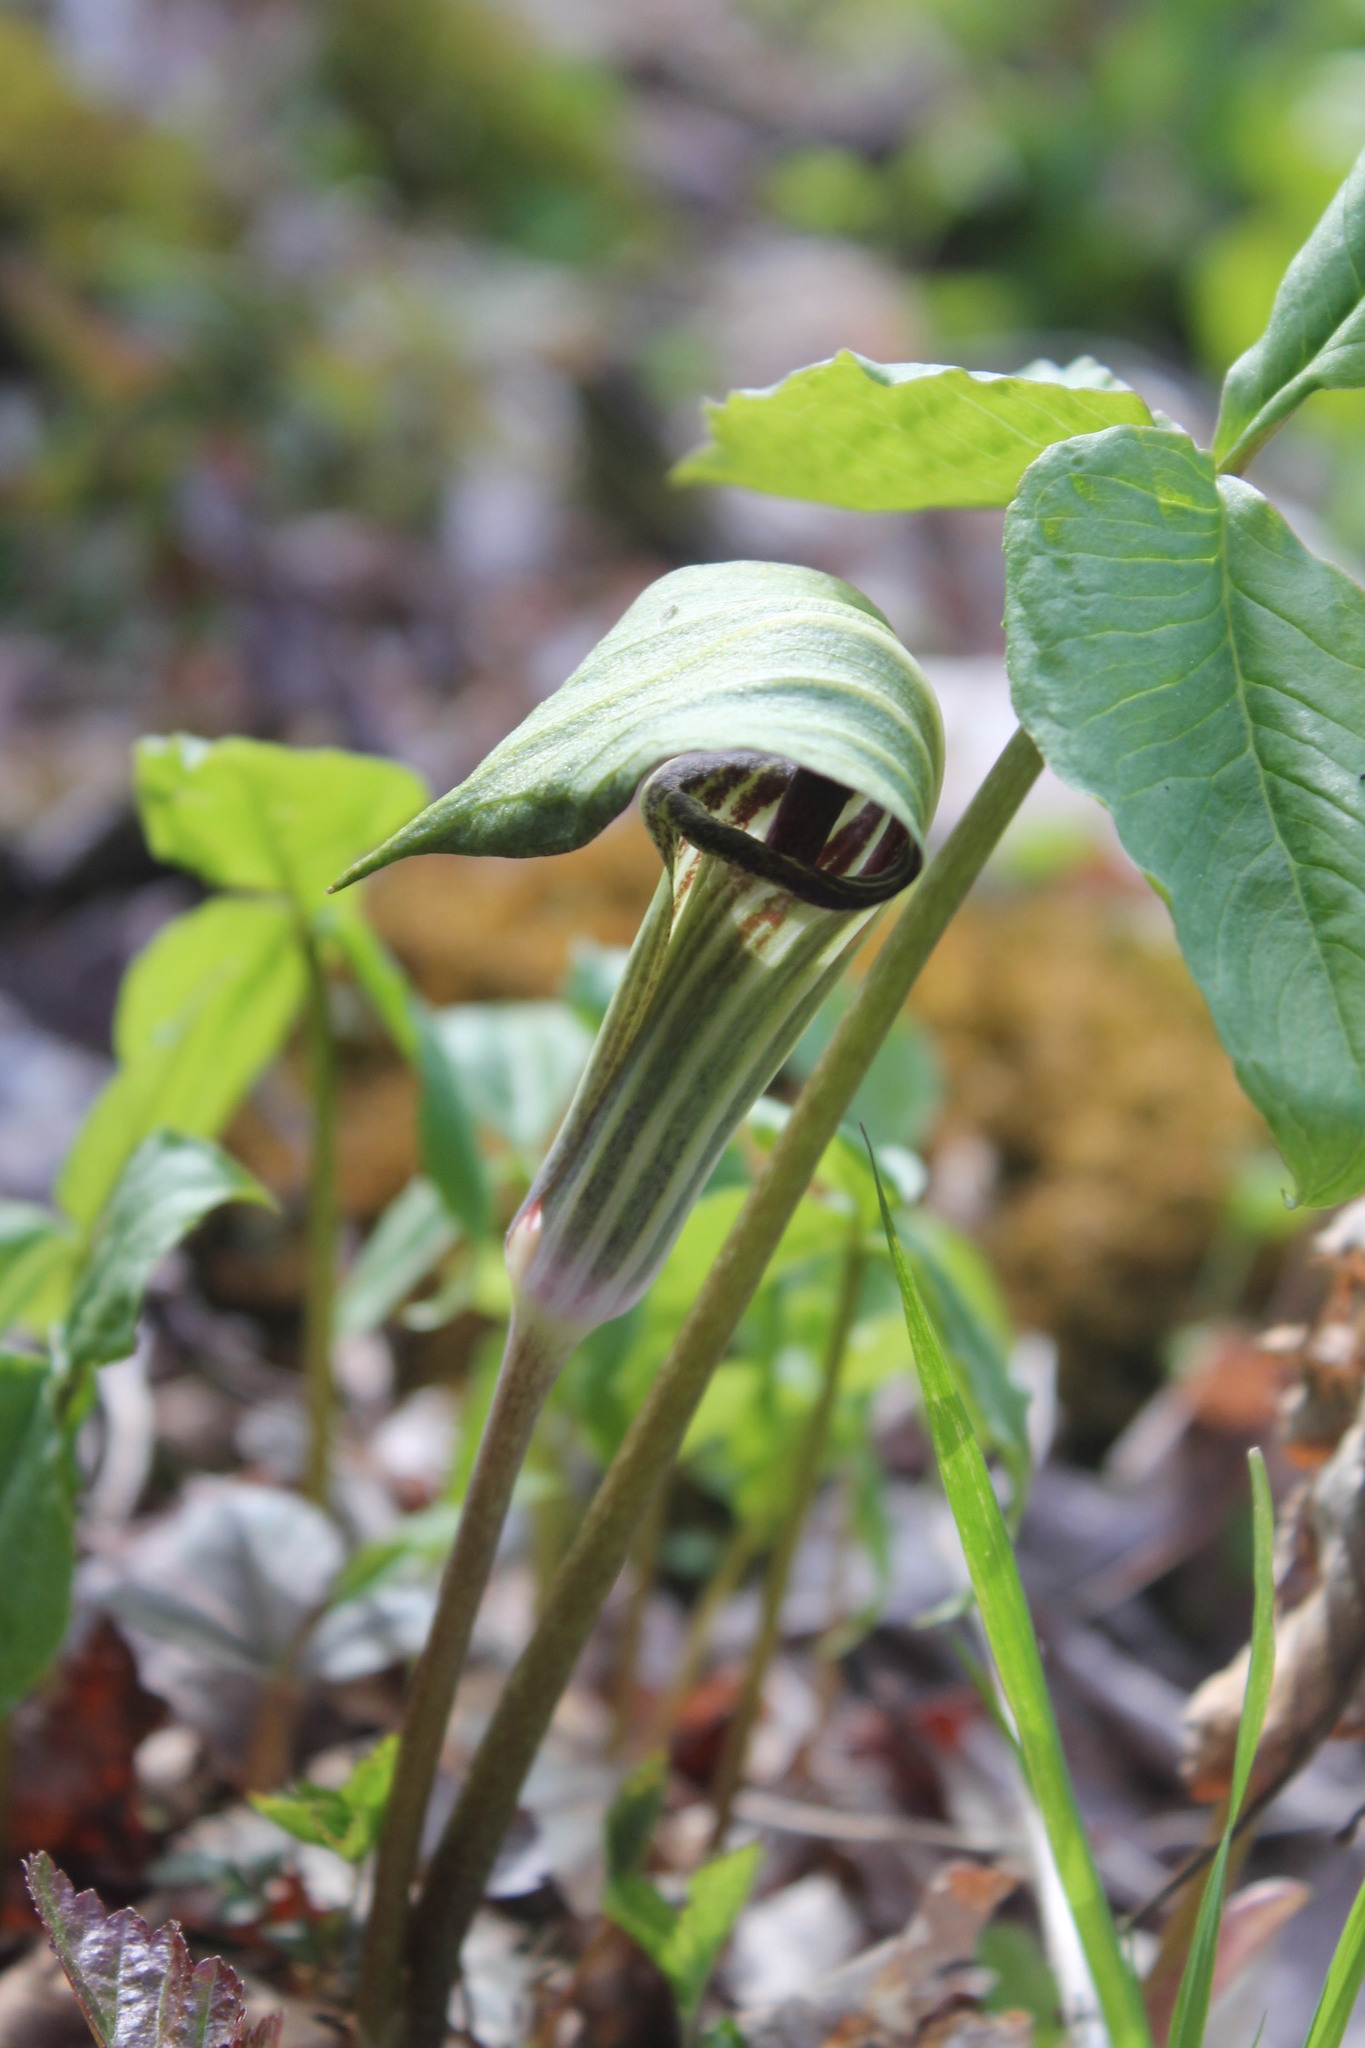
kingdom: Plantae
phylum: Tracheophyta
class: Liliopsida
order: Alismatales
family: Araceae
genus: Arisaema
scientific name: Arisaema triphyllum
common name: Jack-in-the-pulpit
